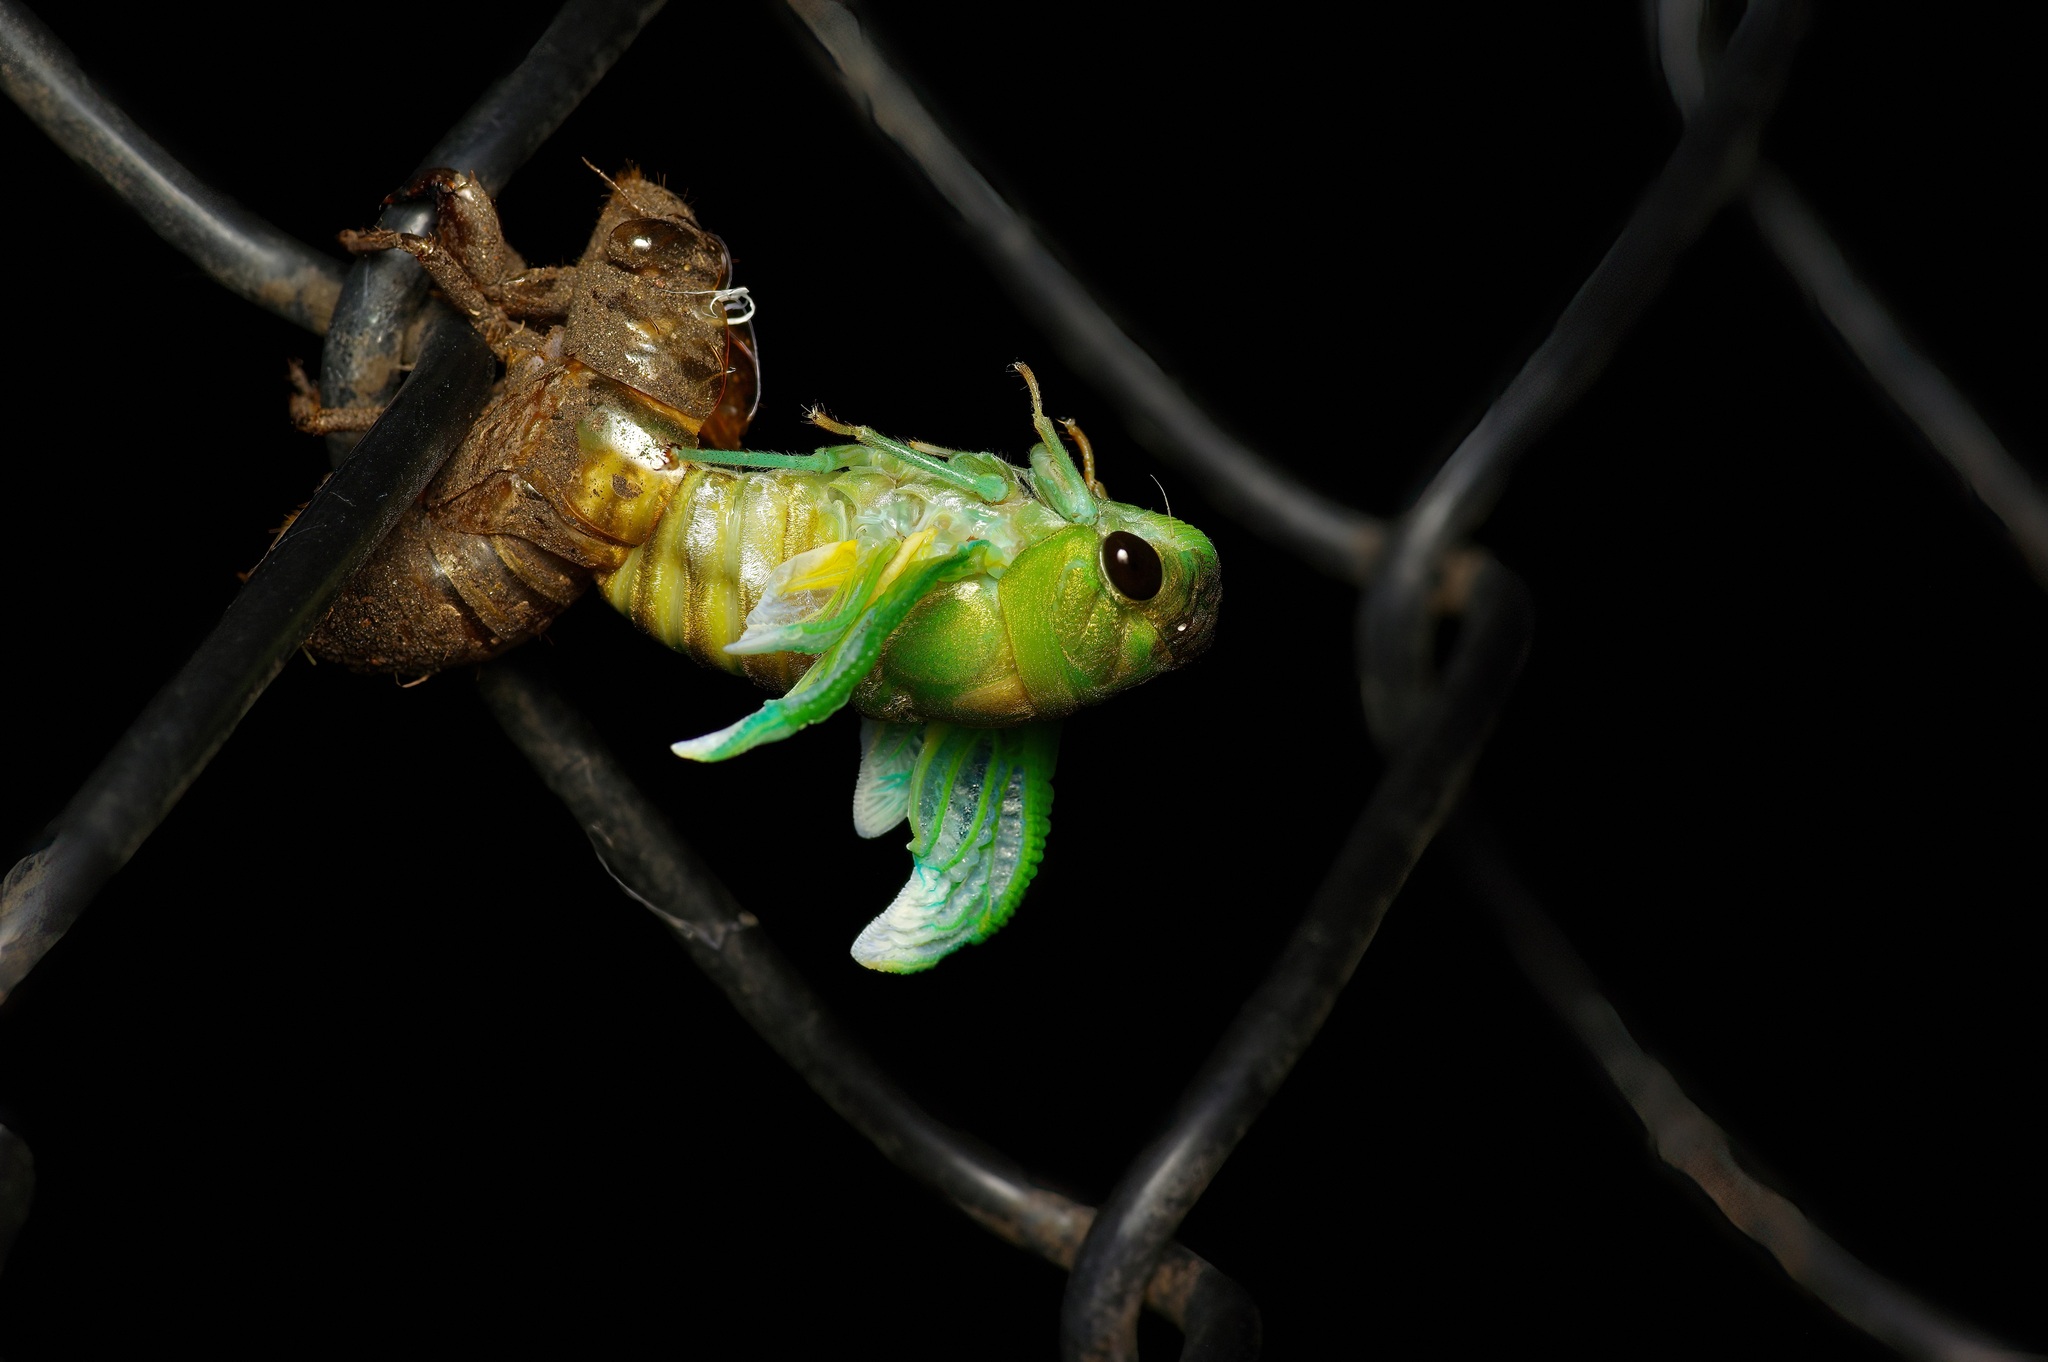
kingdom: Animalia
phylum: Arthropoda
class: Insecta
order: Hemiptera
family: Cicadidae
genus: Neotibicen
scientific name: Neotibicen superbus
